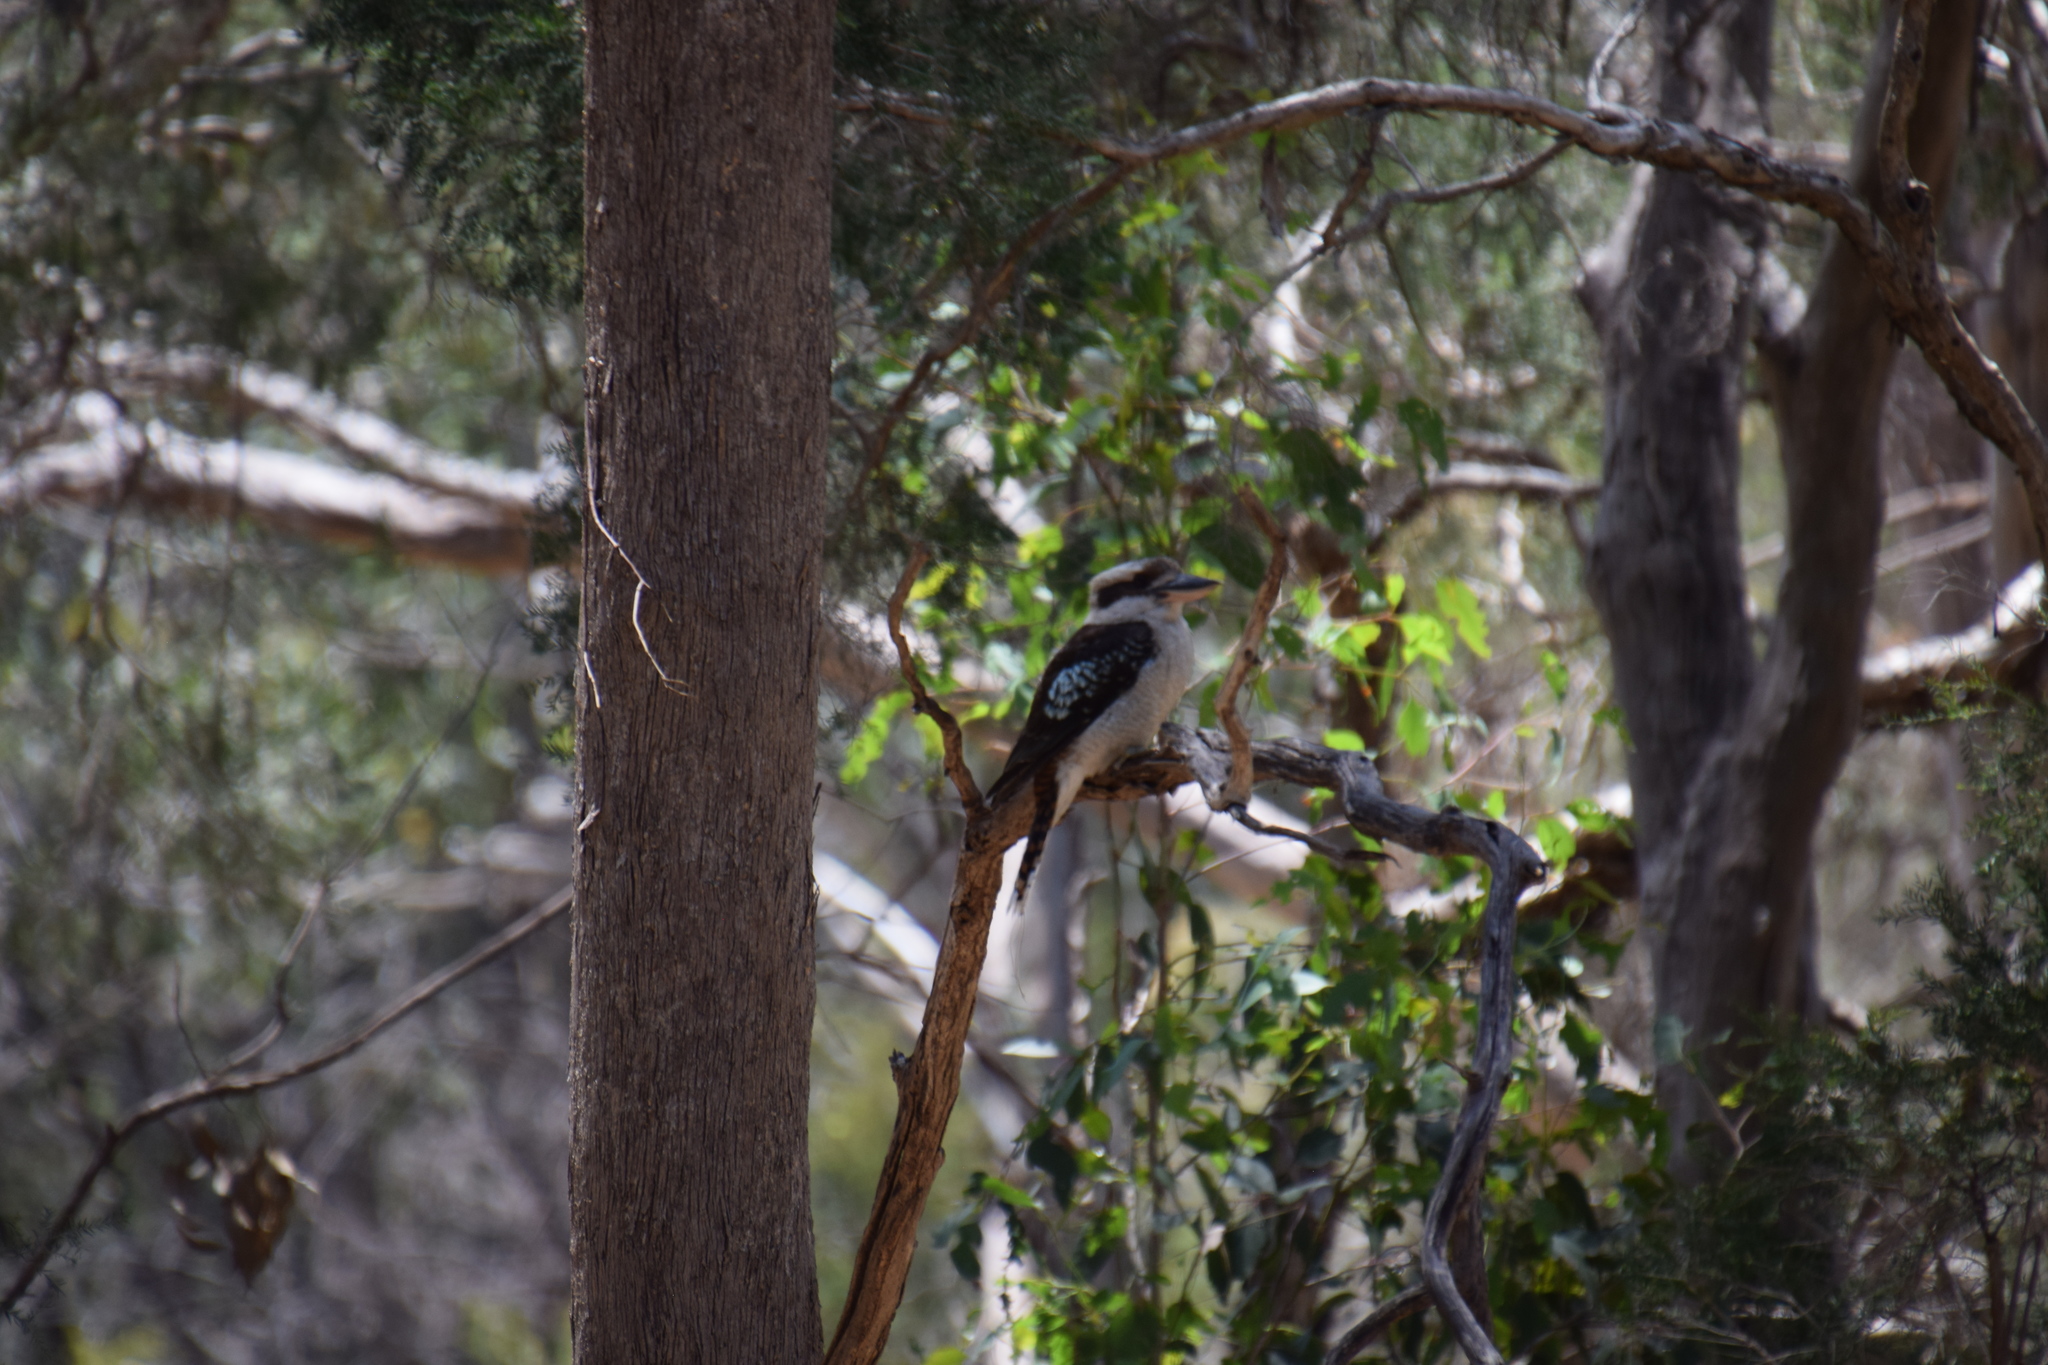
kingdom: Animalia
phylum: Chordata
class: Aves
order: Coraciiformes
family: Alcedinidae
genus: Dacelo
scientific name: Dacelo novaeguineae
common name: Laughing kookaburra
